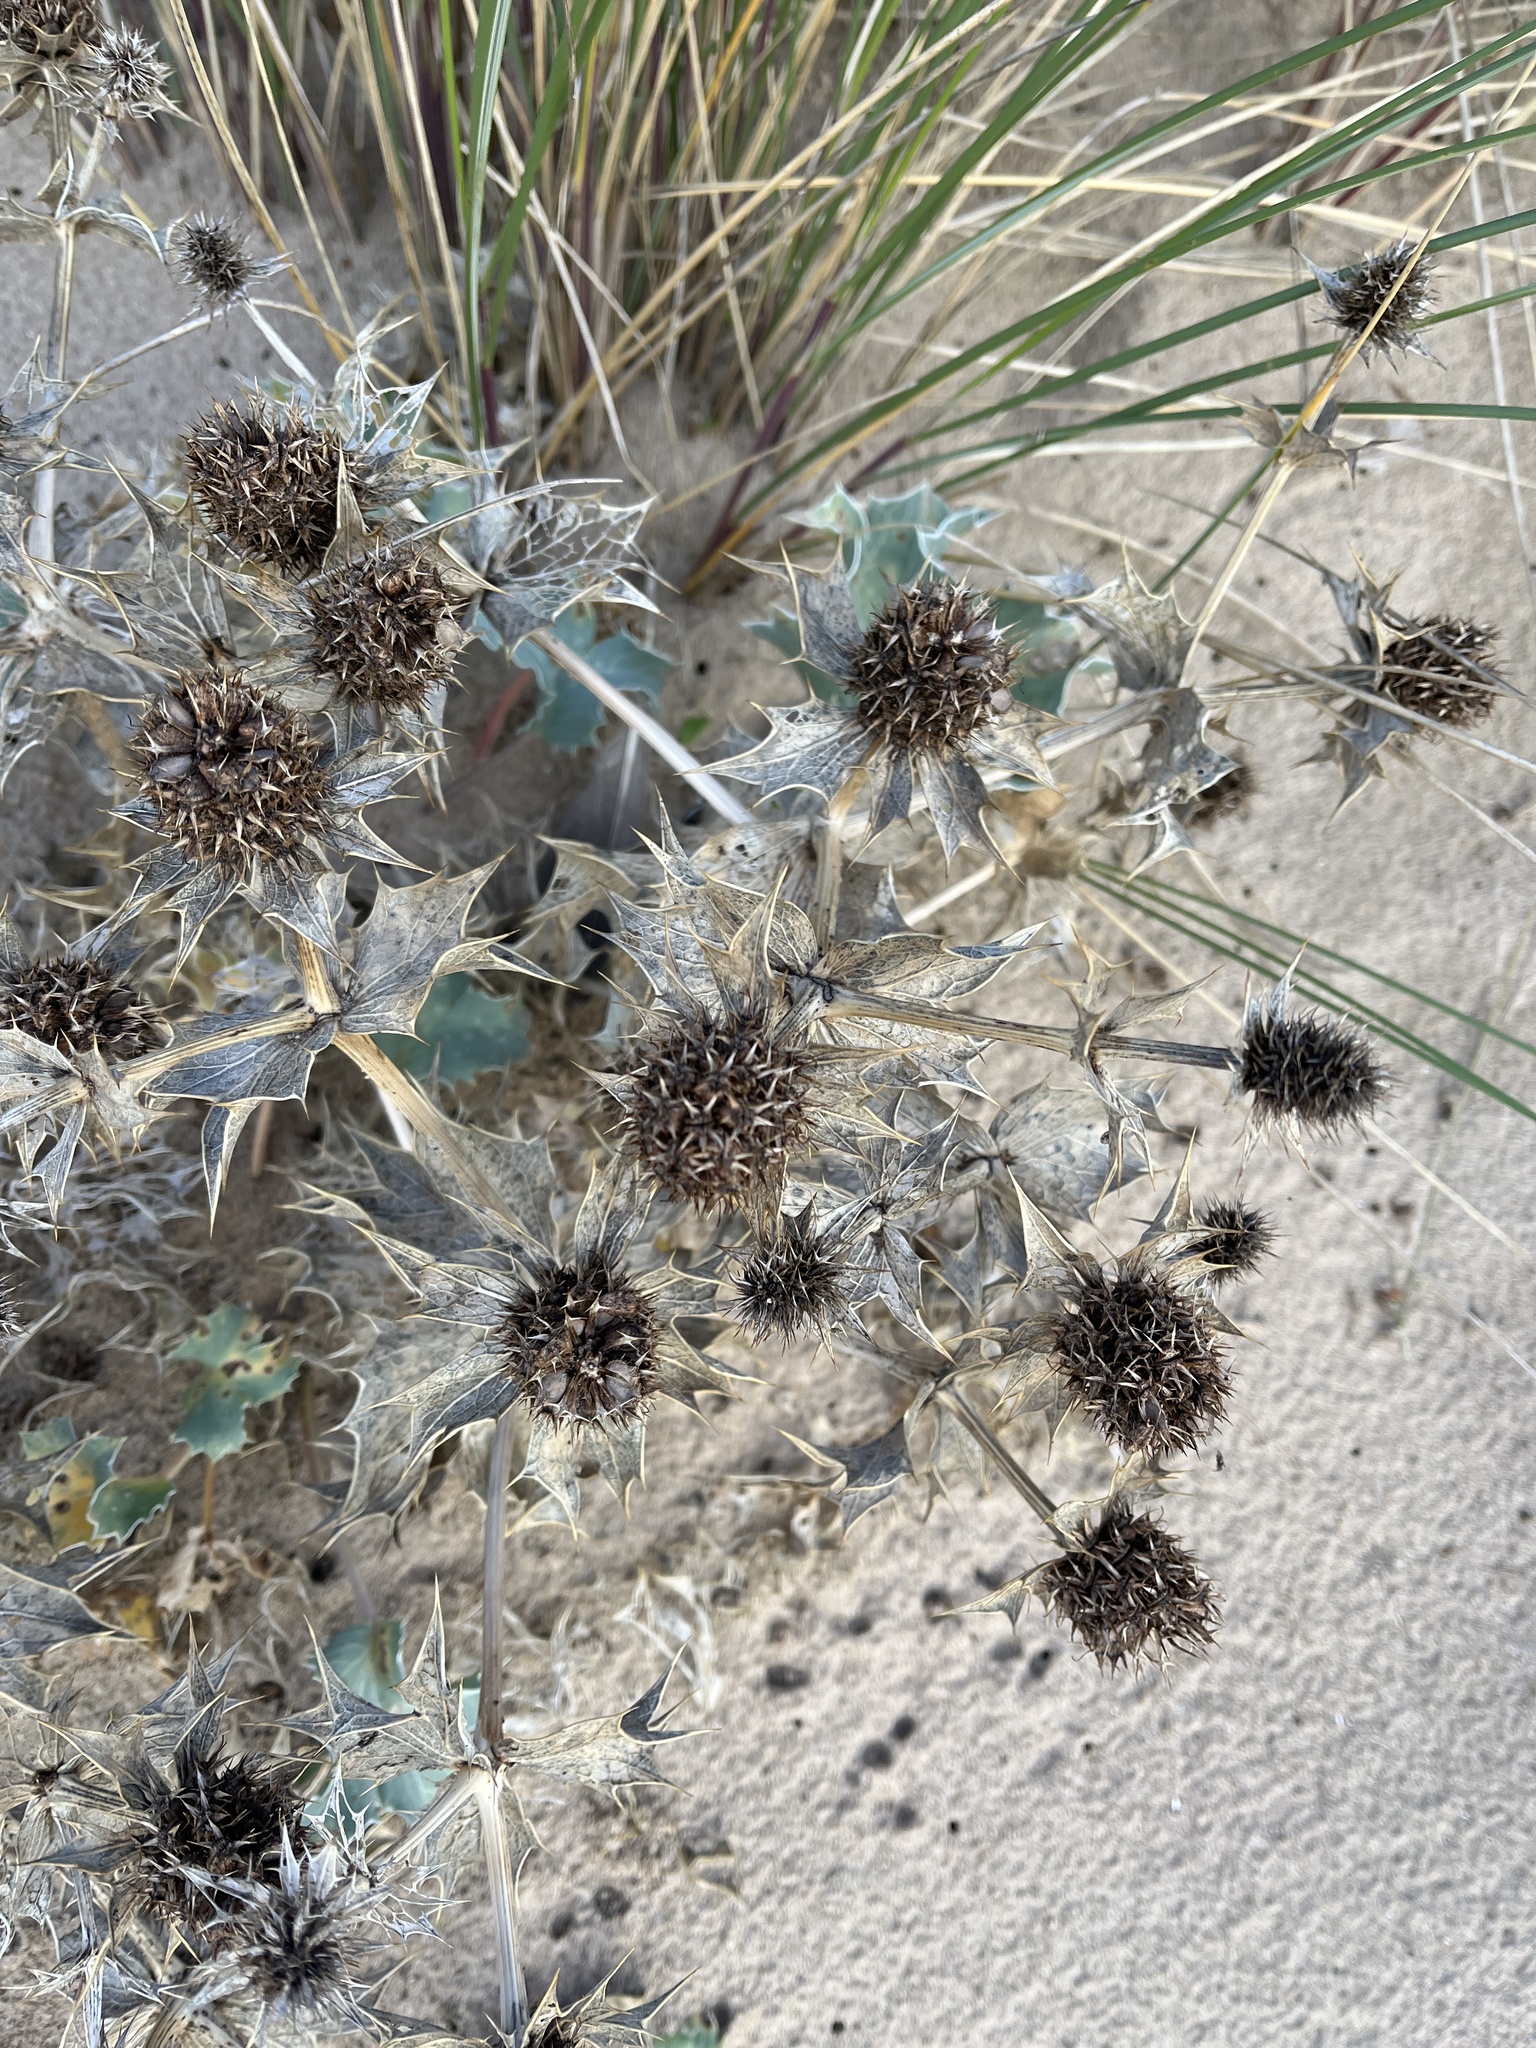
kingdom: Plantae
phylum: Tracheophyta
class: Magnoliopsida
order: Apiales
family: Apiaceae
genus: Eryngium
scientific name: Eryngium maritimum
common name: Sea-holly
